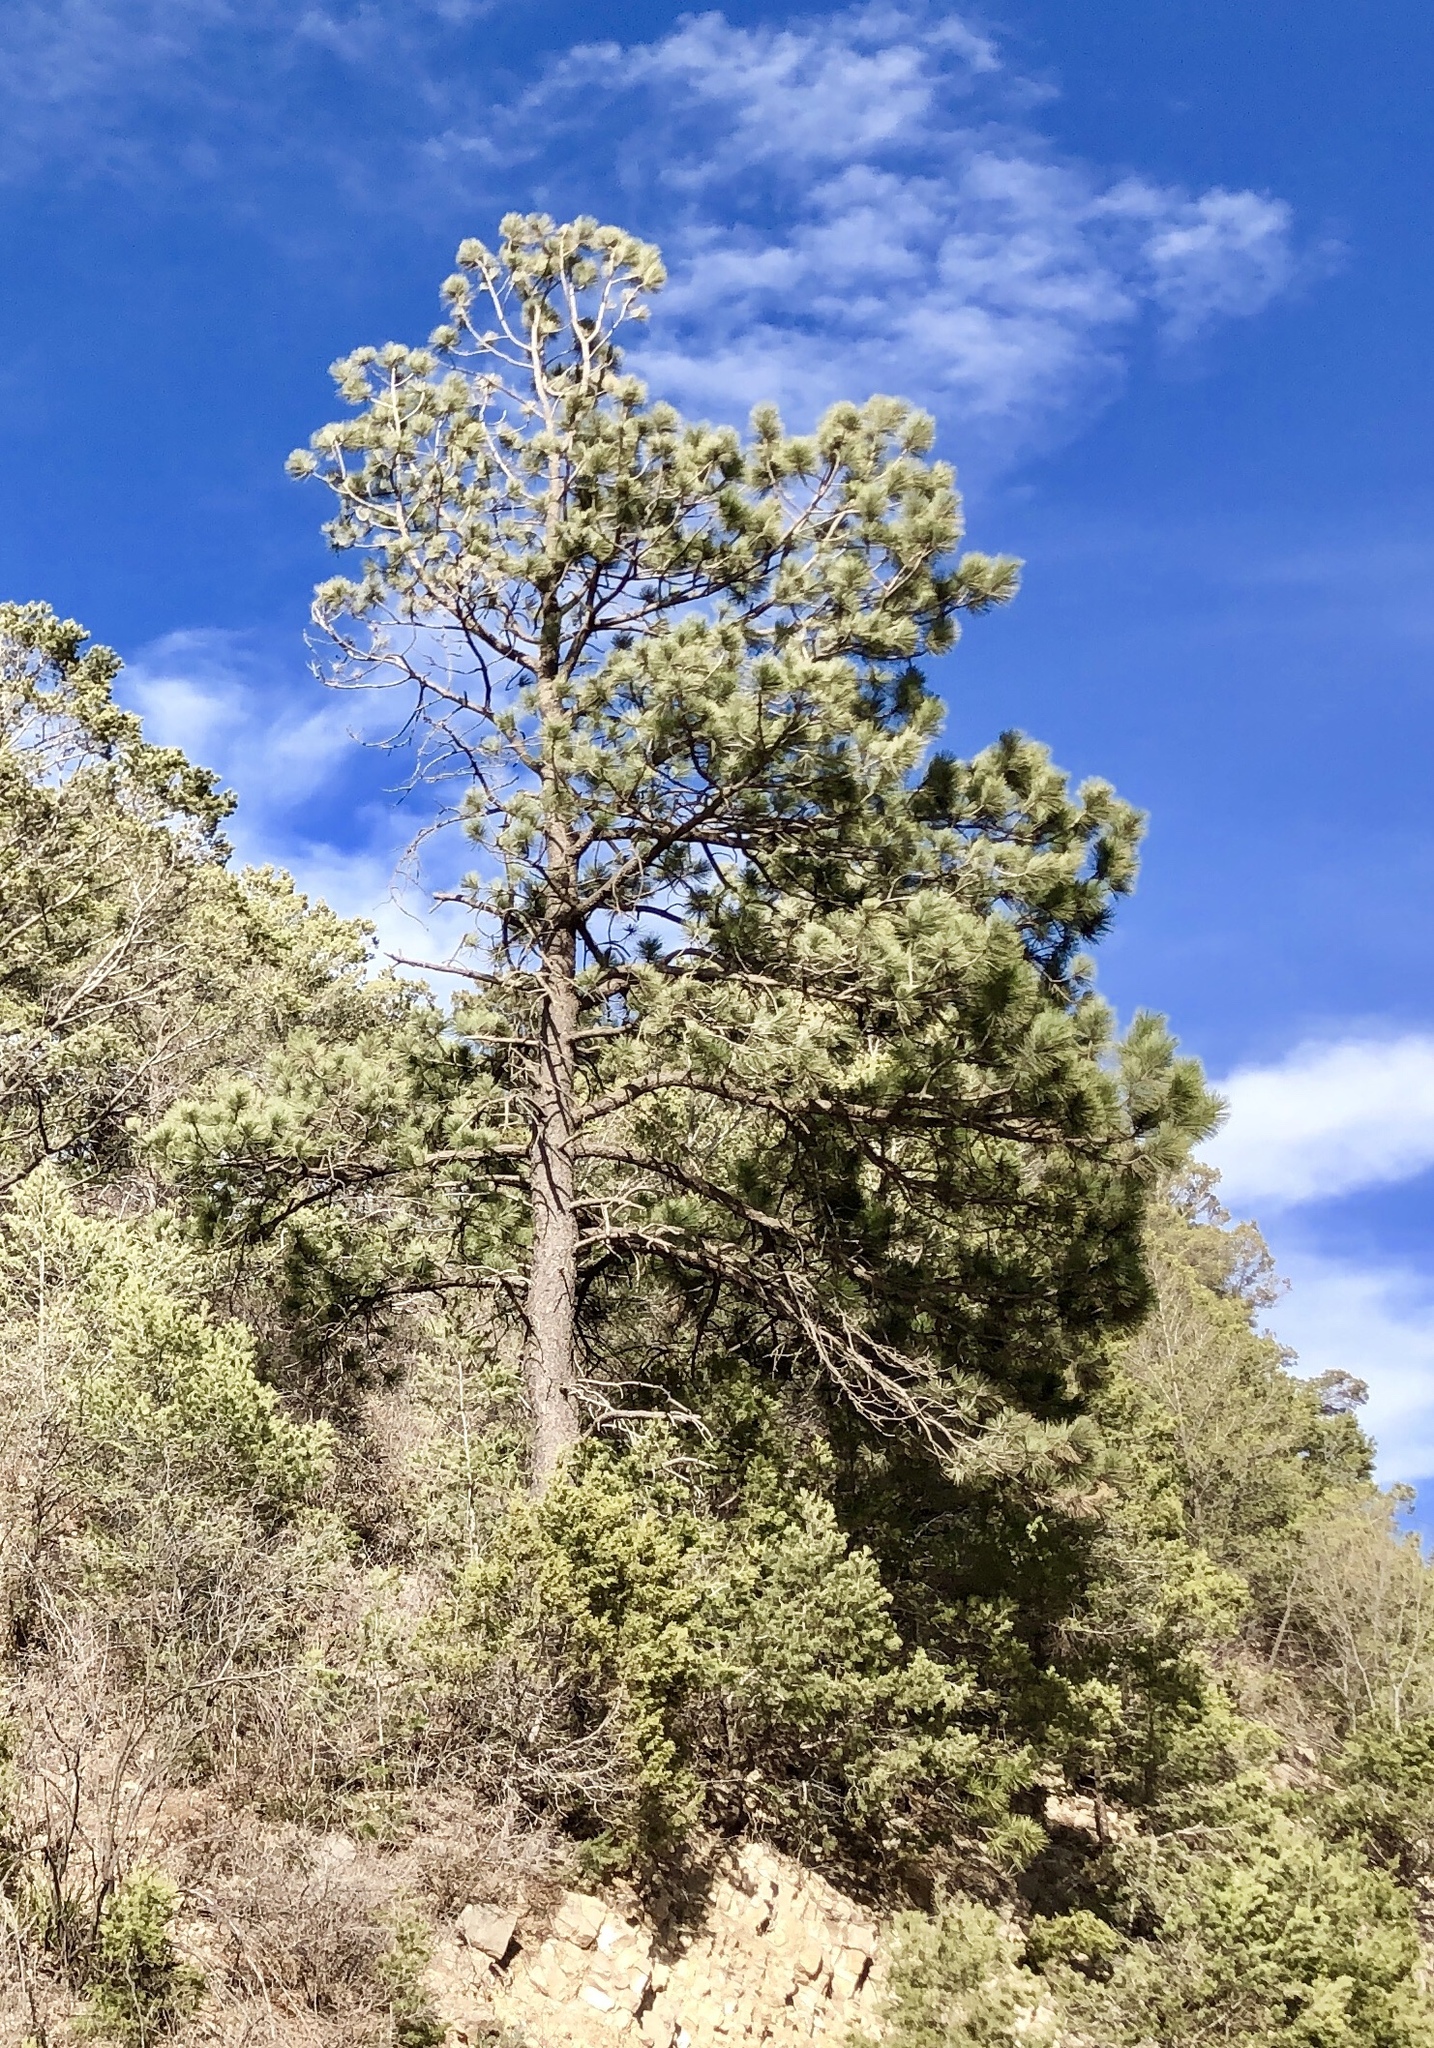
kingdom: Plantae
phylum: Tracheophyta
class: Pinopsida
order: Pinales
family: Pinaceae
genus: Pinus
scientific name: Pinus ponderosa
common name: Western yellow-pine
